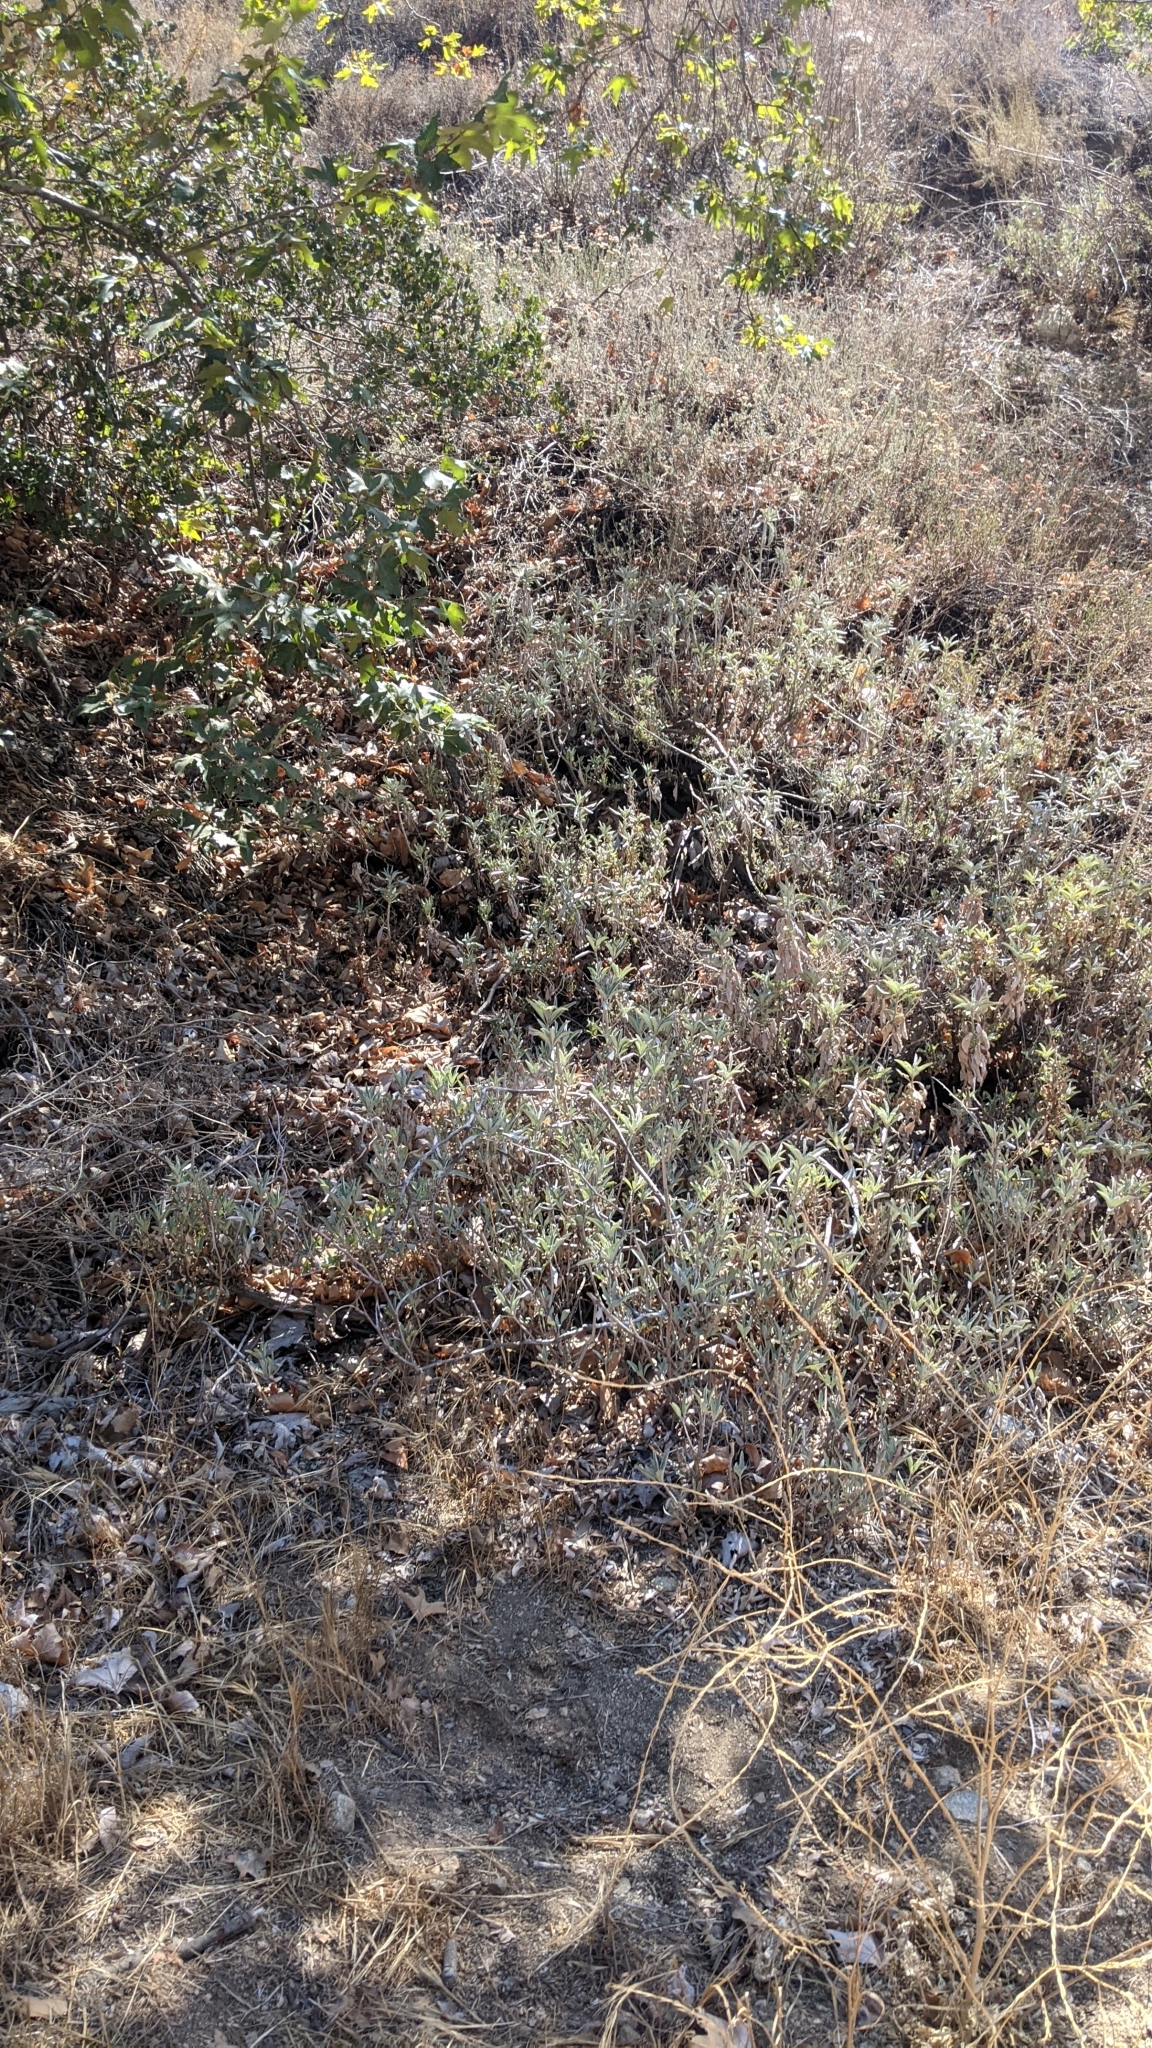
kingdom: Plantae
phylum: Tracheophyta
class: Magnoliopsida
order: Lamiales
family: Lamiaceae
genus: Salvia
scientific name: Salvia apiana
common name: White sage
